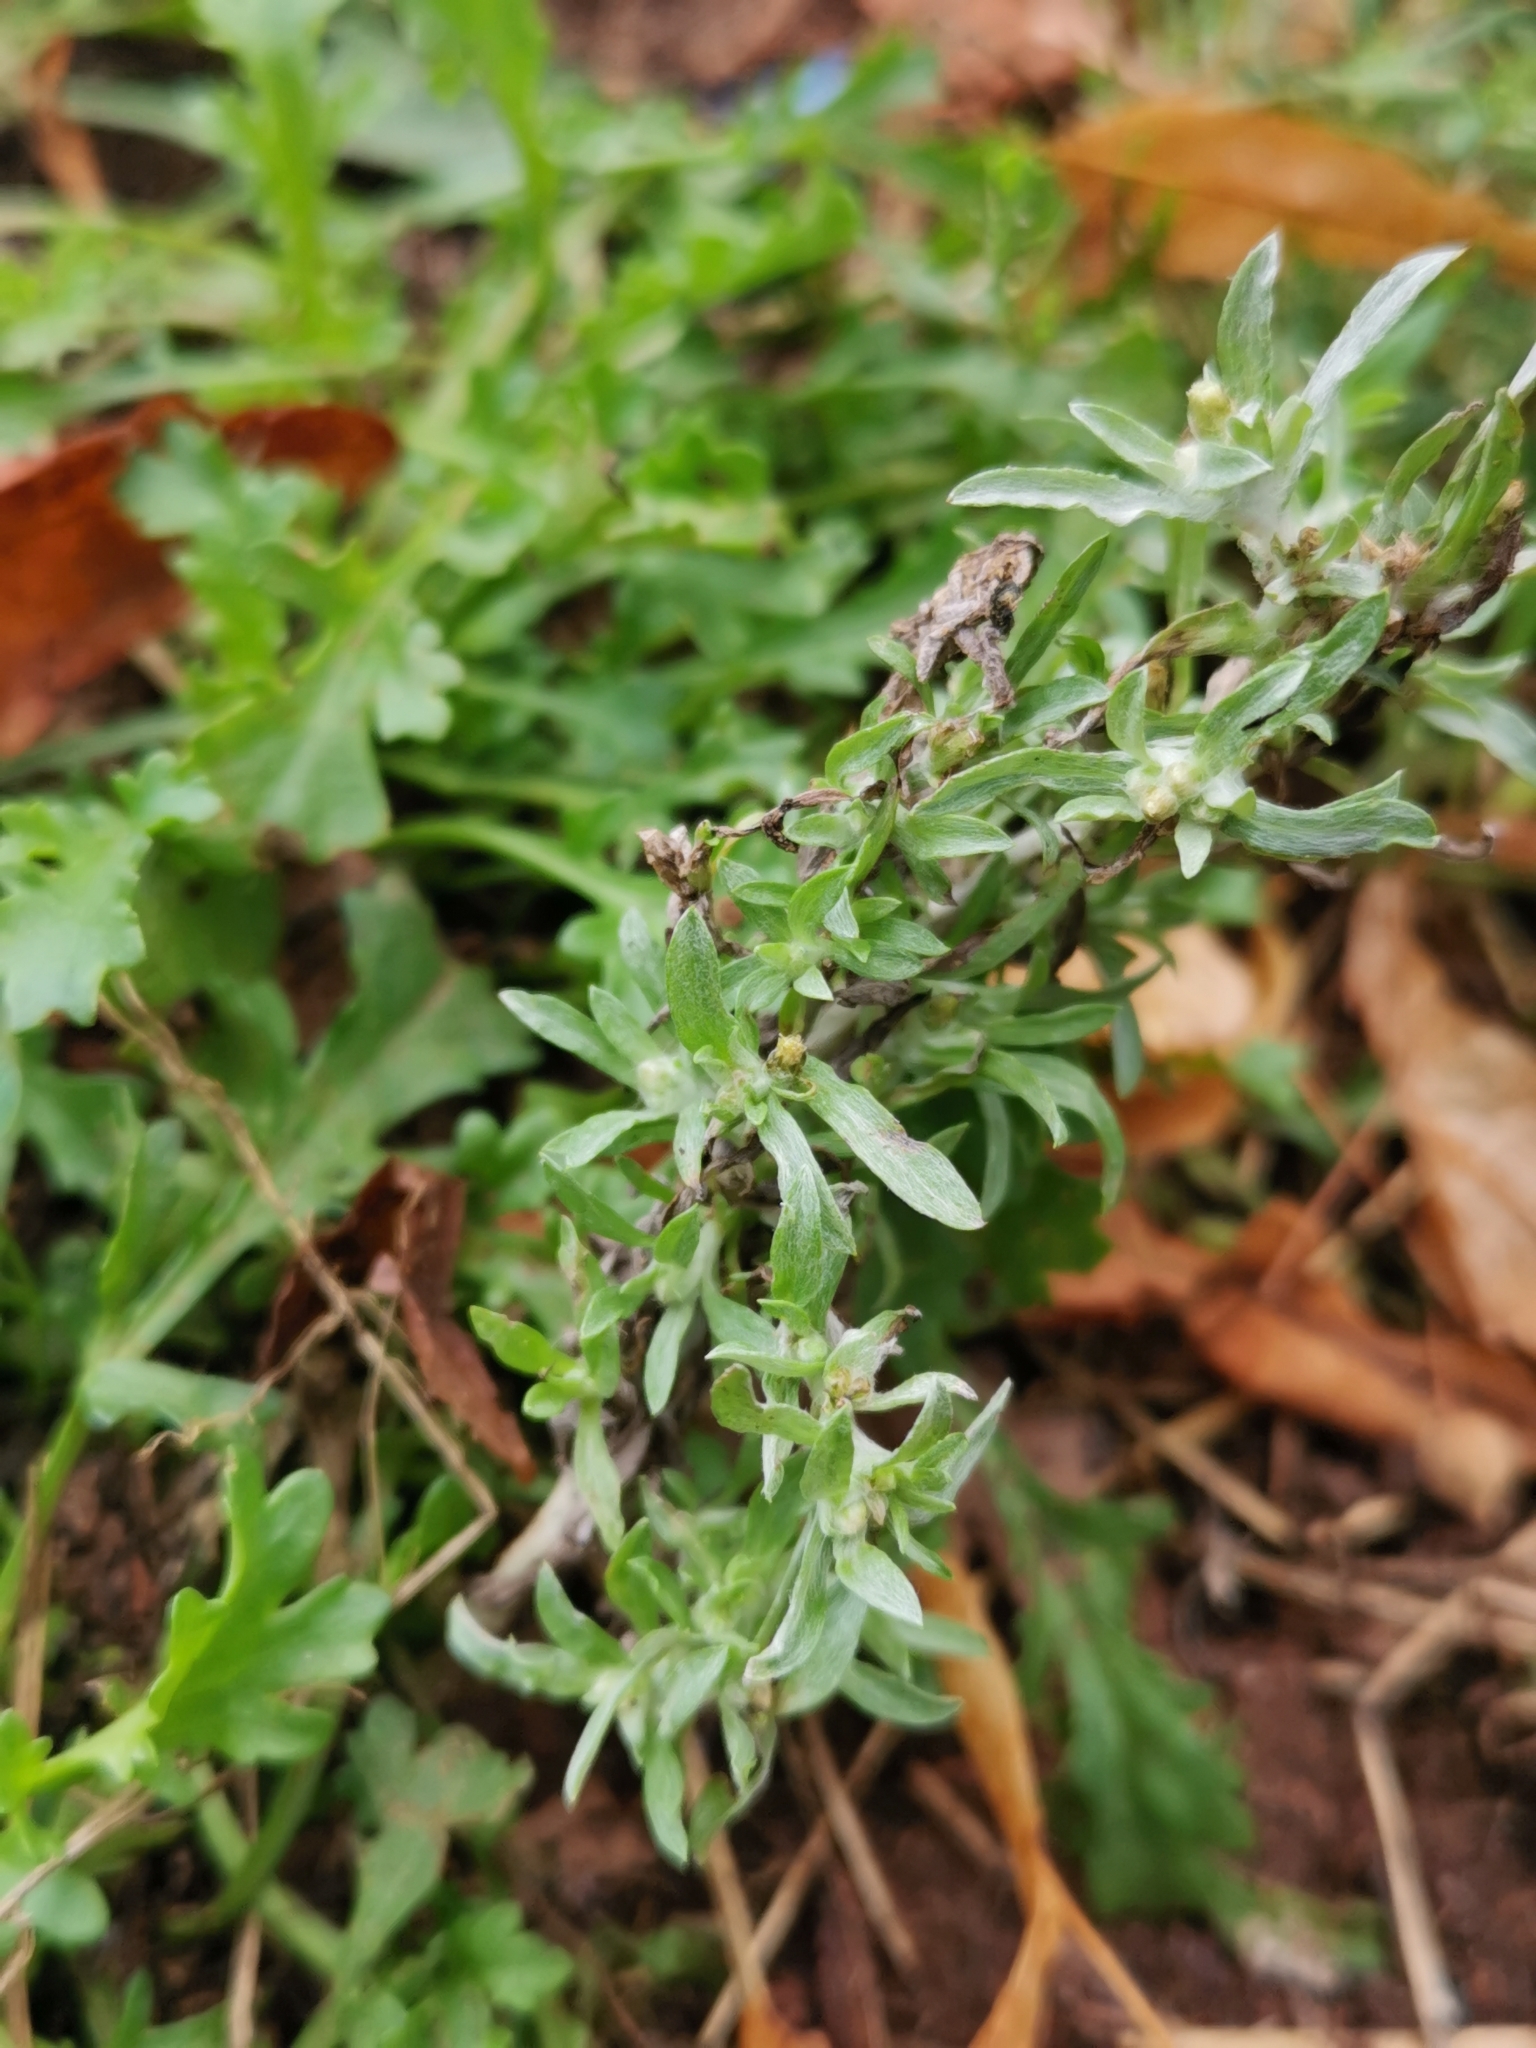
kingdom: Plantae
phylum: Tracheophyta
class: Magnoliopsida
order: Asterales
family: Asteraceae
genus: Gnaphalium
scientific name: Gnaphalium uliginosum
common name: Marsh cudweed
